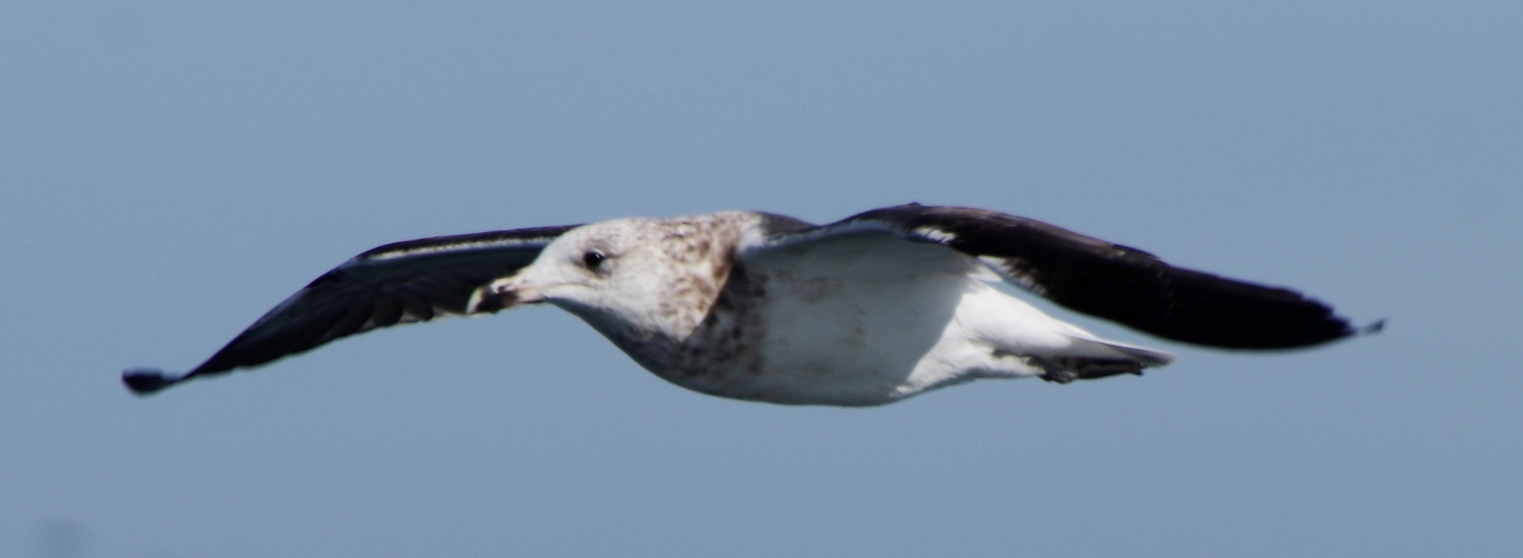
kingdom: Animalia
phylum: Chordata
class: Aves
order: Charadriiformes
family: Laridae
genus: Larus
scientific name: Larus dominicanus
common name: Kelp gull
